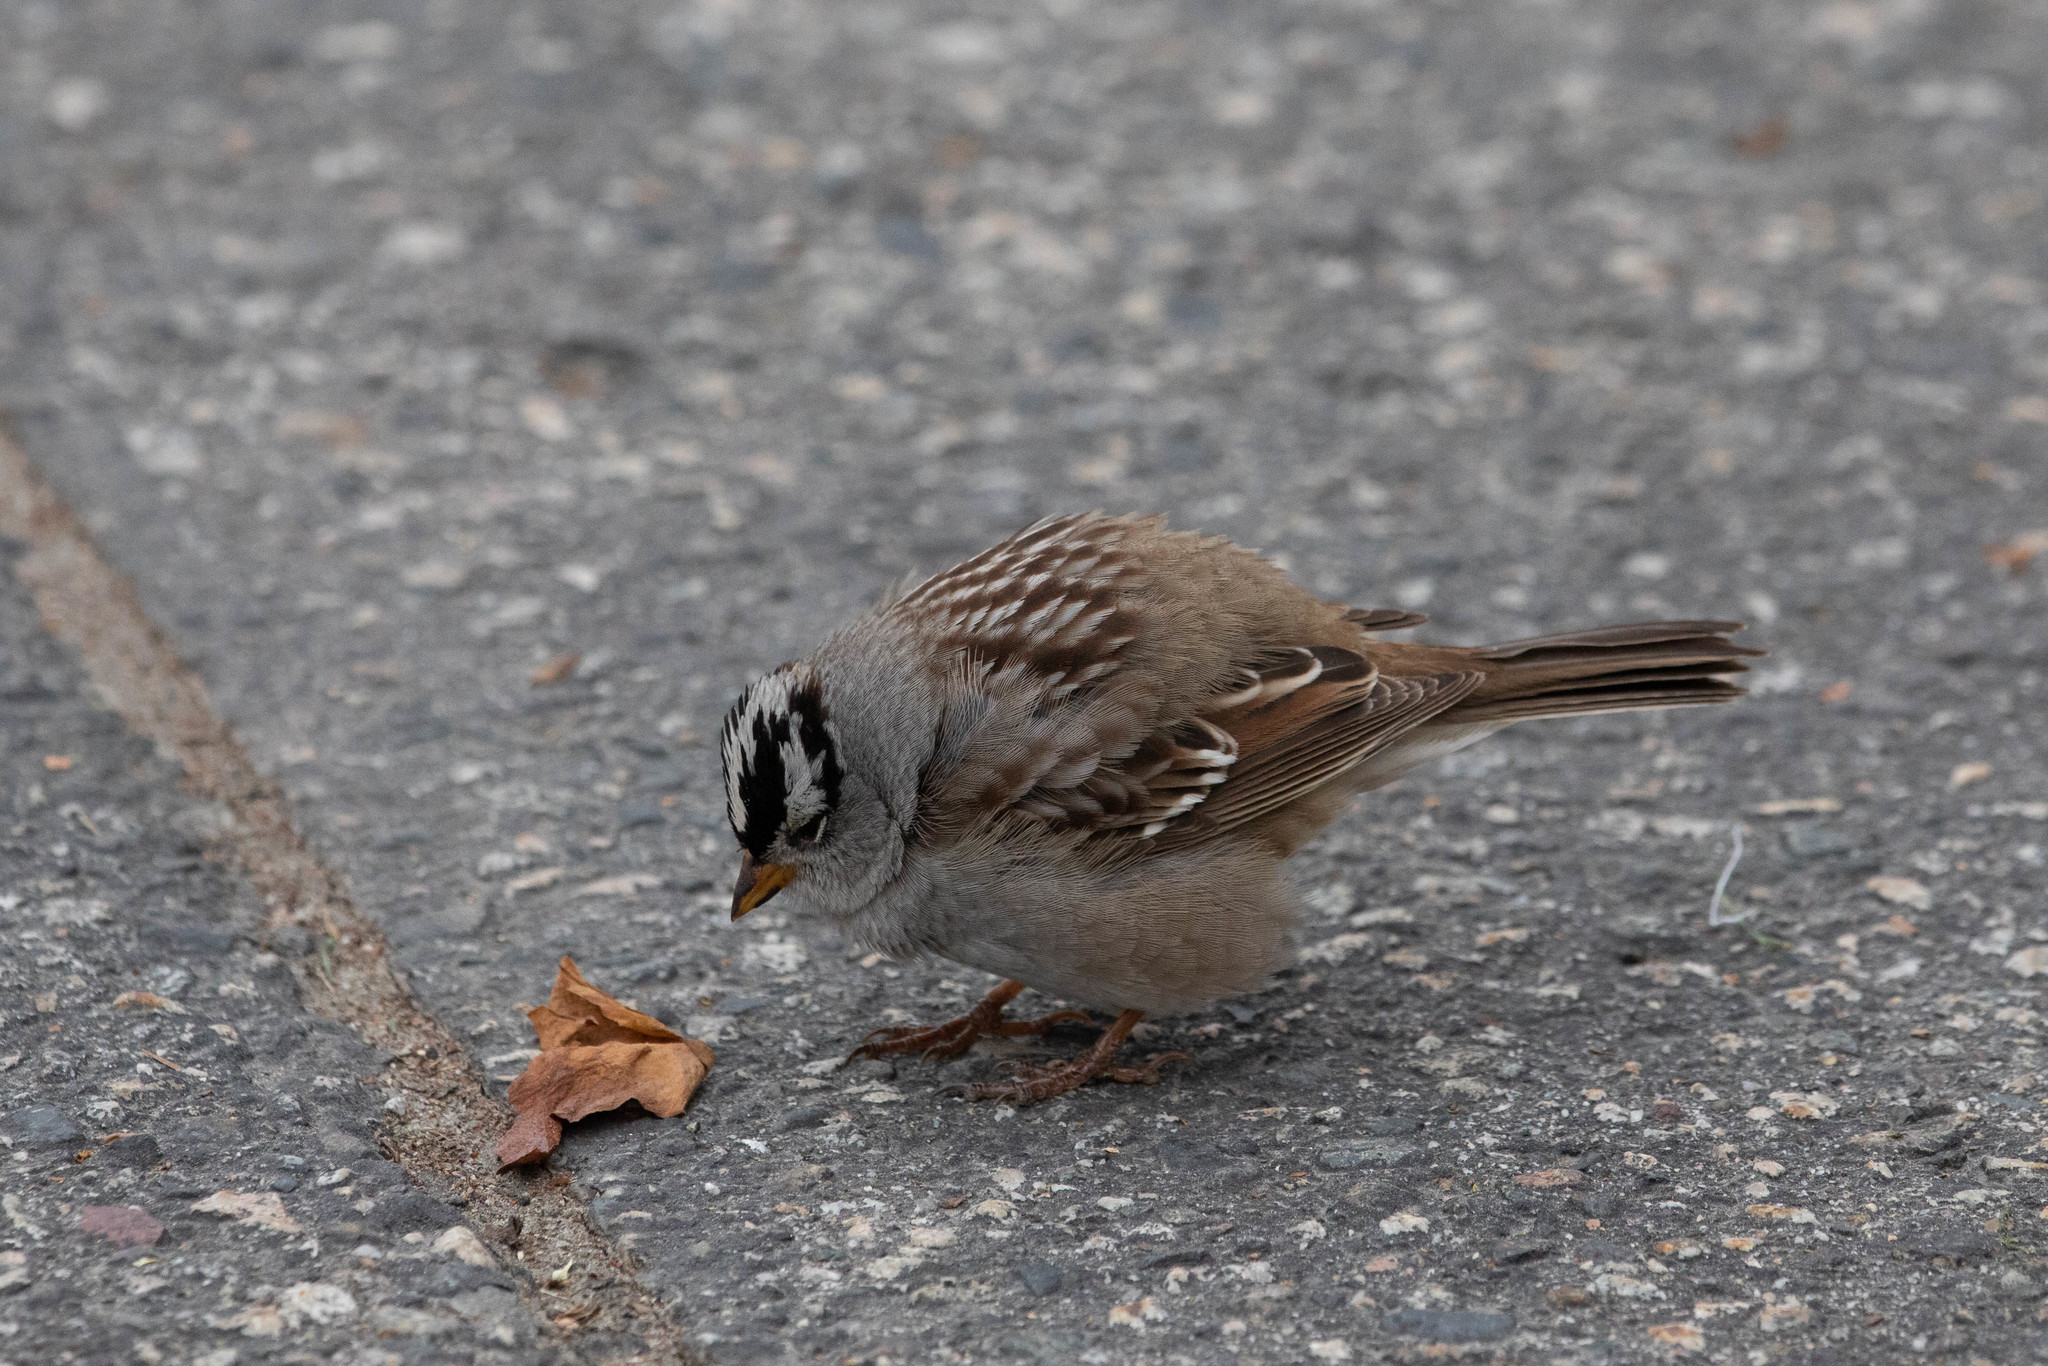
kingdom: Animalia
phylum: Chordata
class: Aves
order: Passeriformes
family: Passerellidae
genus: Zonotrichia
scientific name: Zonotrichia leucophrys
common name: White-crowned sparrow
